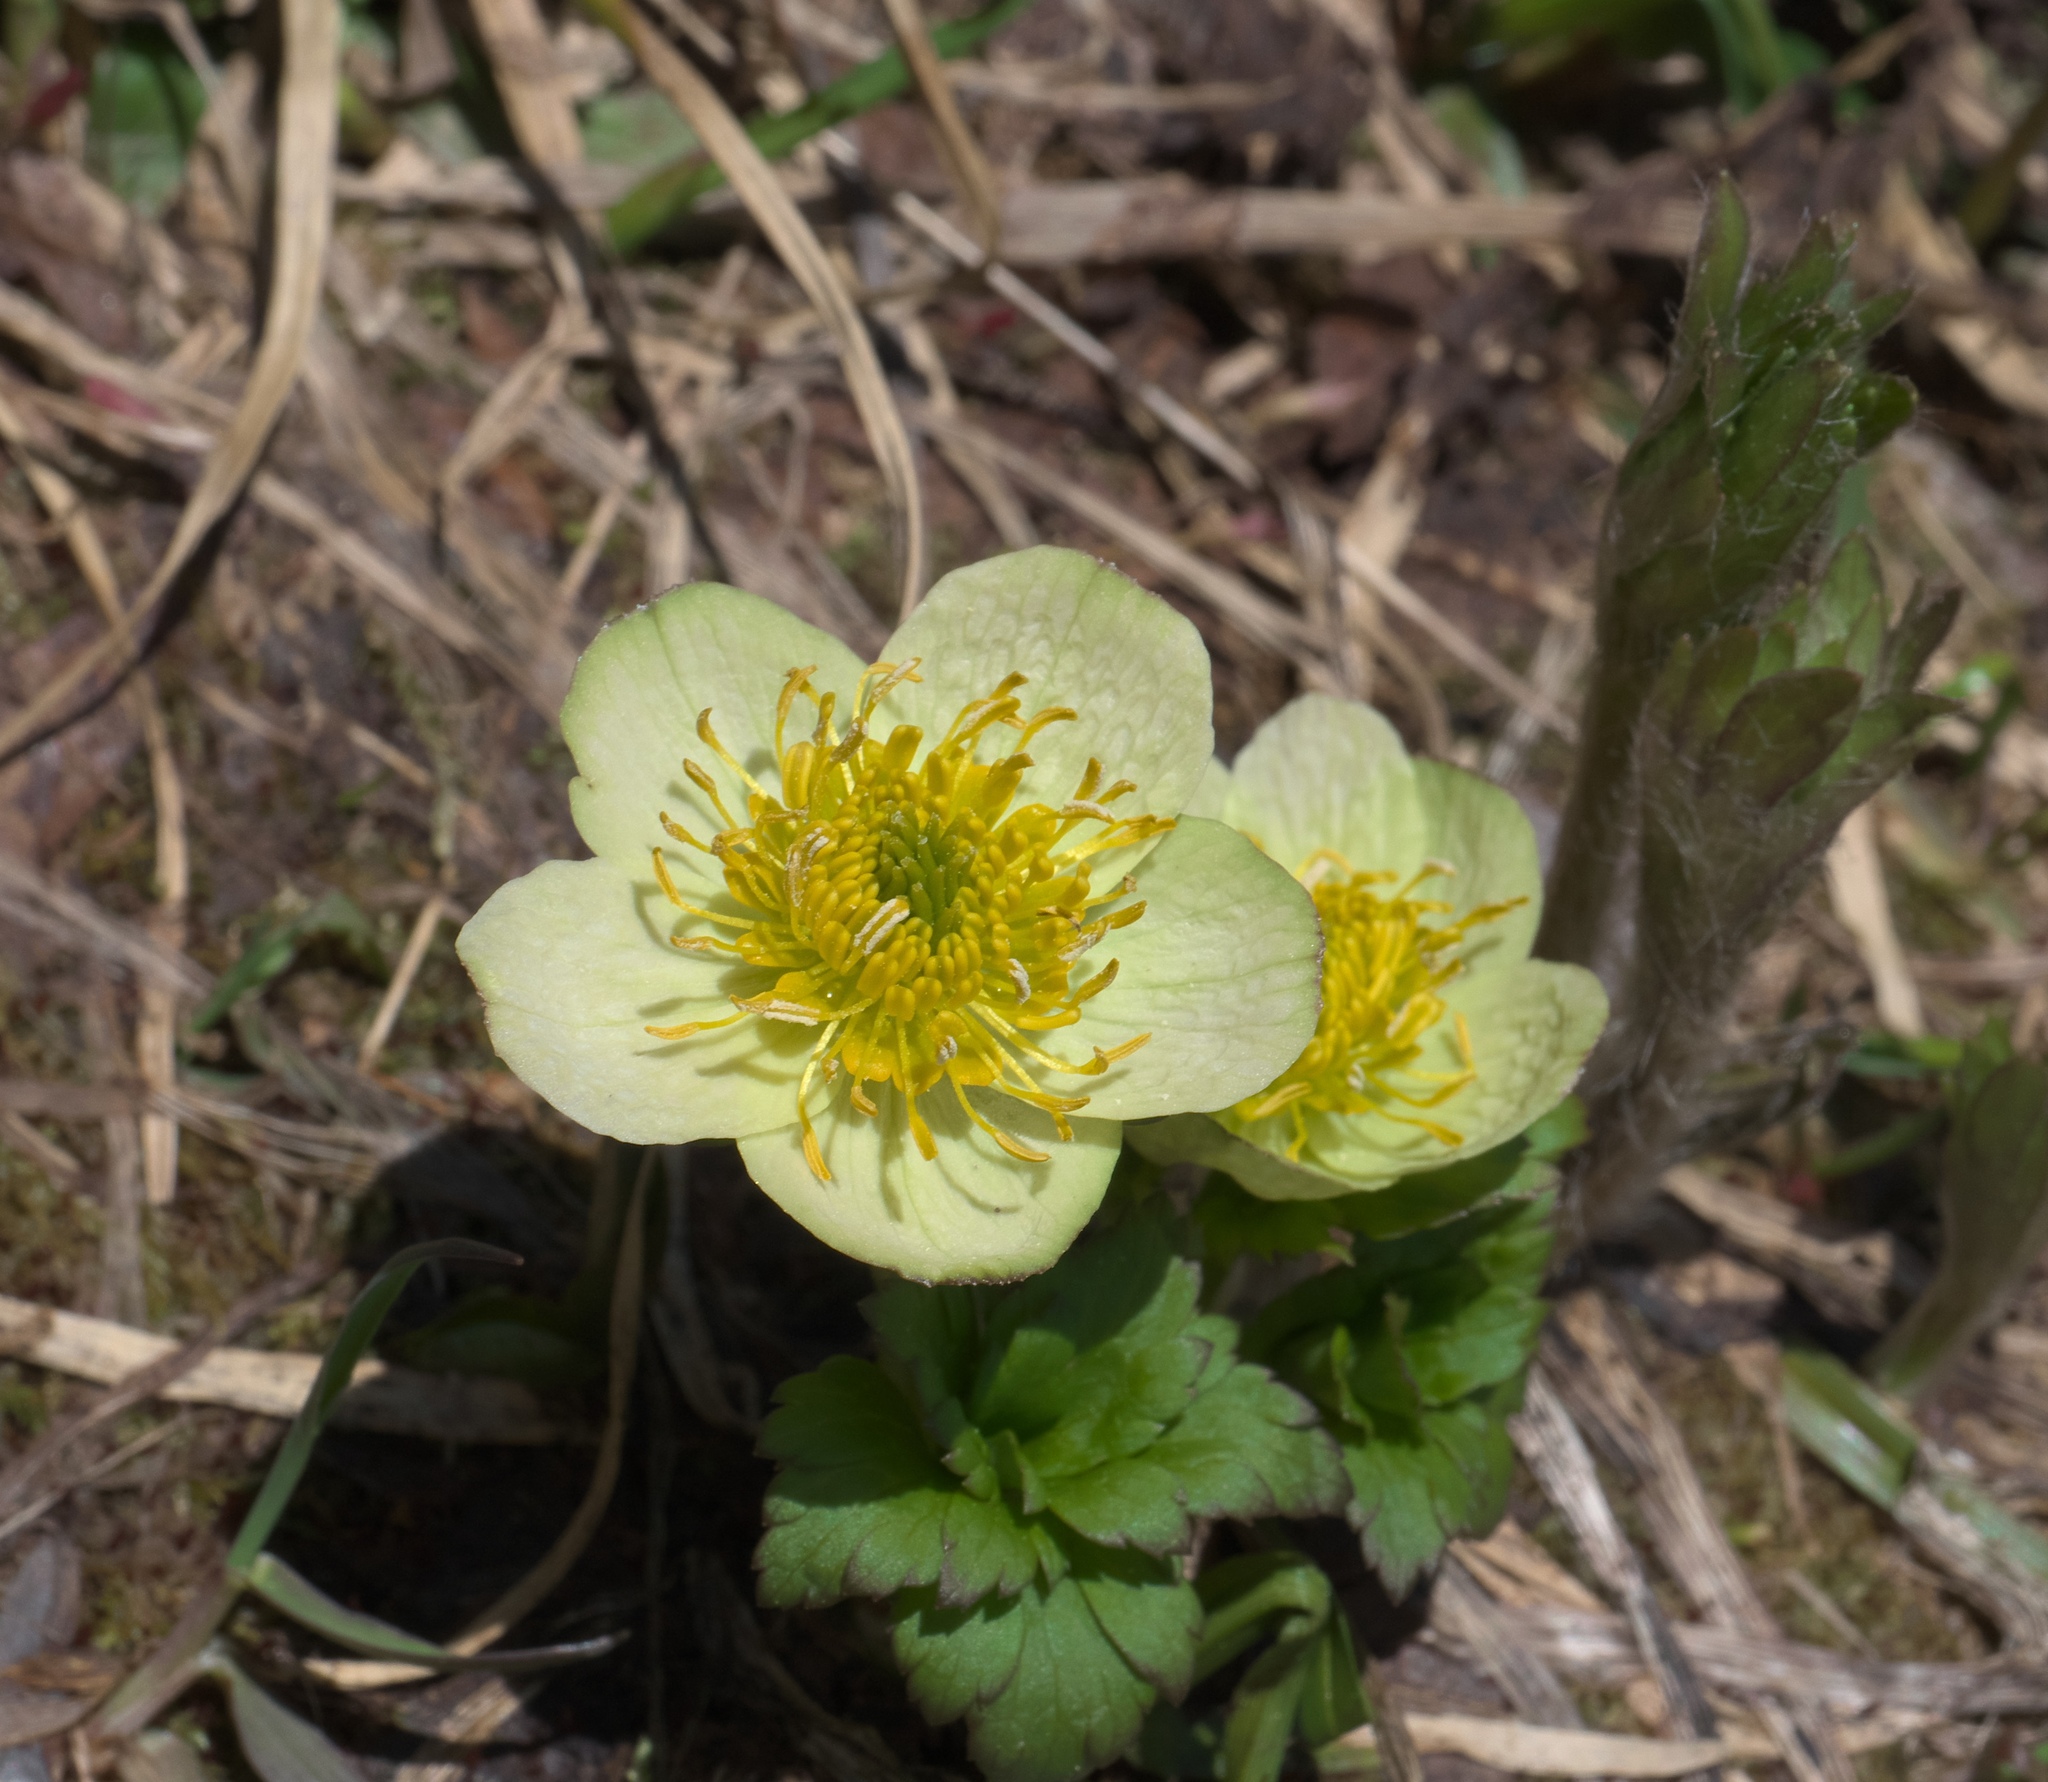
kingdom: Plantae
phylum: Tracheophyta
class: Magnoliopsida
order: Ranunculales
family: Ranunculaceae
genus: Trollius
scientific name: Trollius laxus
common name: American globeflower
